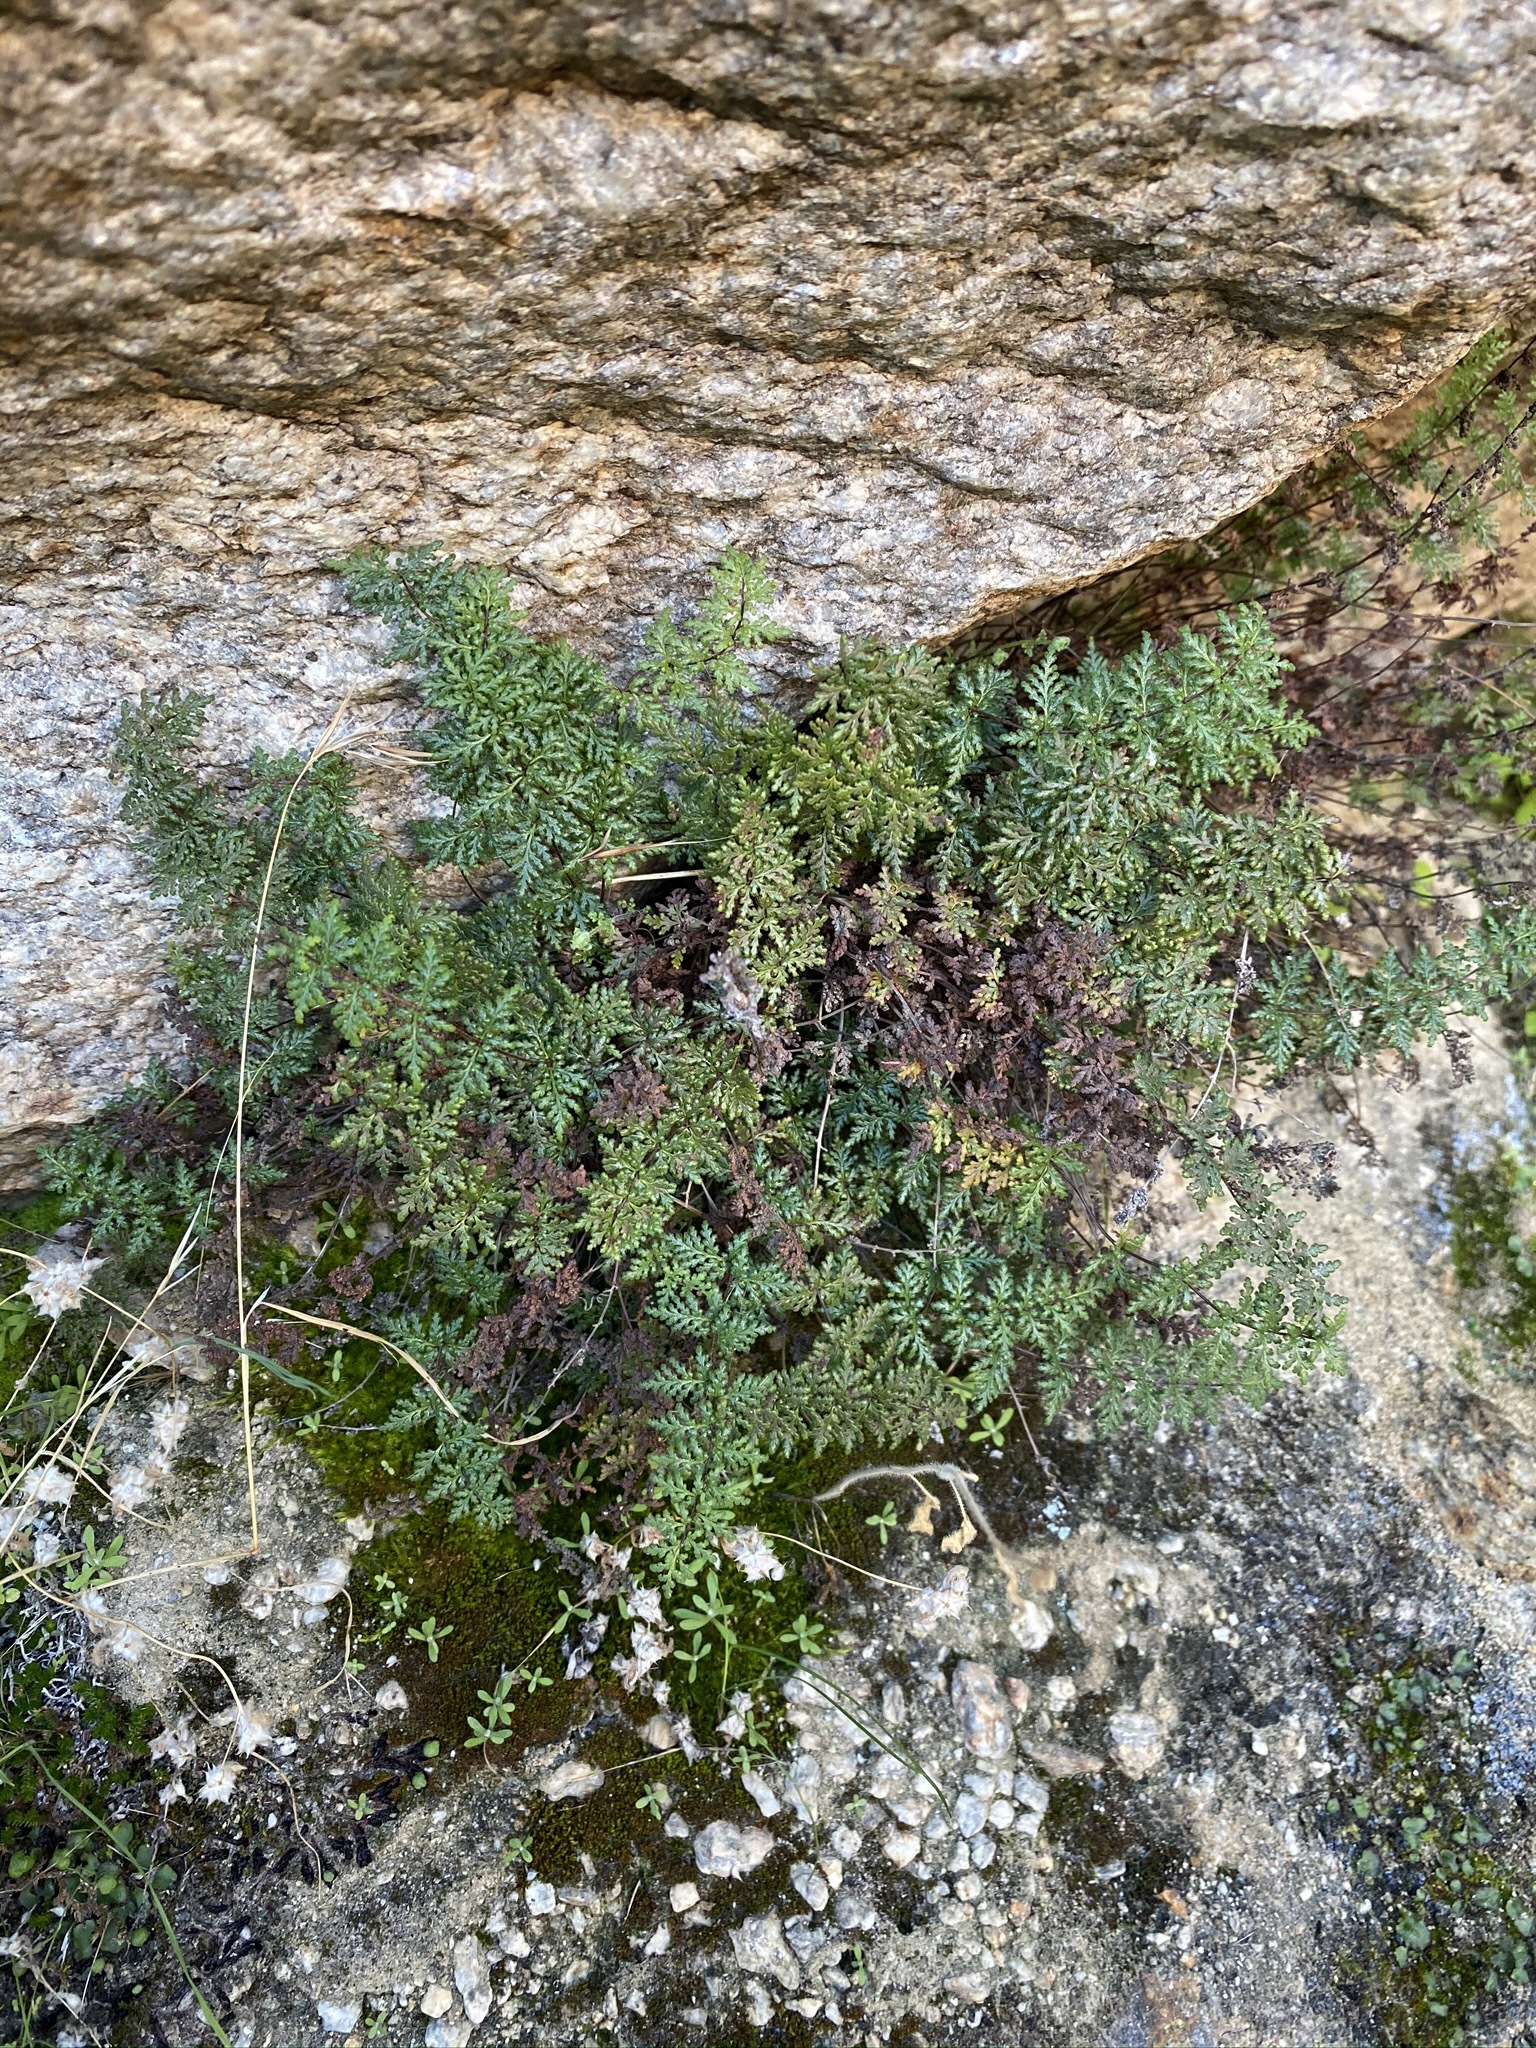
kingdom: Plantae
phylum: Tracheophyta
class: Polypodiopsida
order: Polypodiales
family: Pteridaceae
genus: Myriopteris
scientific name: Myriopteris viscida
